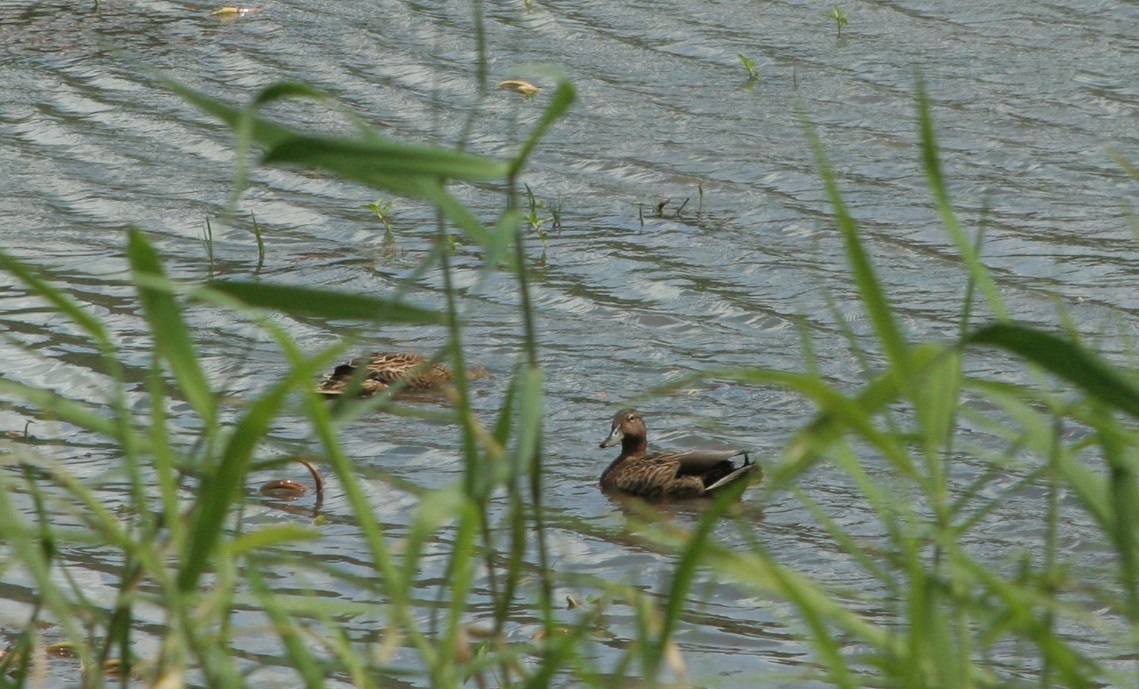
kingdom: Animalia
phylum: Chordata
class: Aves
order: Anseriformes
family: Anatidae
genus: Anas
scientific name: Anas wyvilliana
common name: Hawaiian duck
